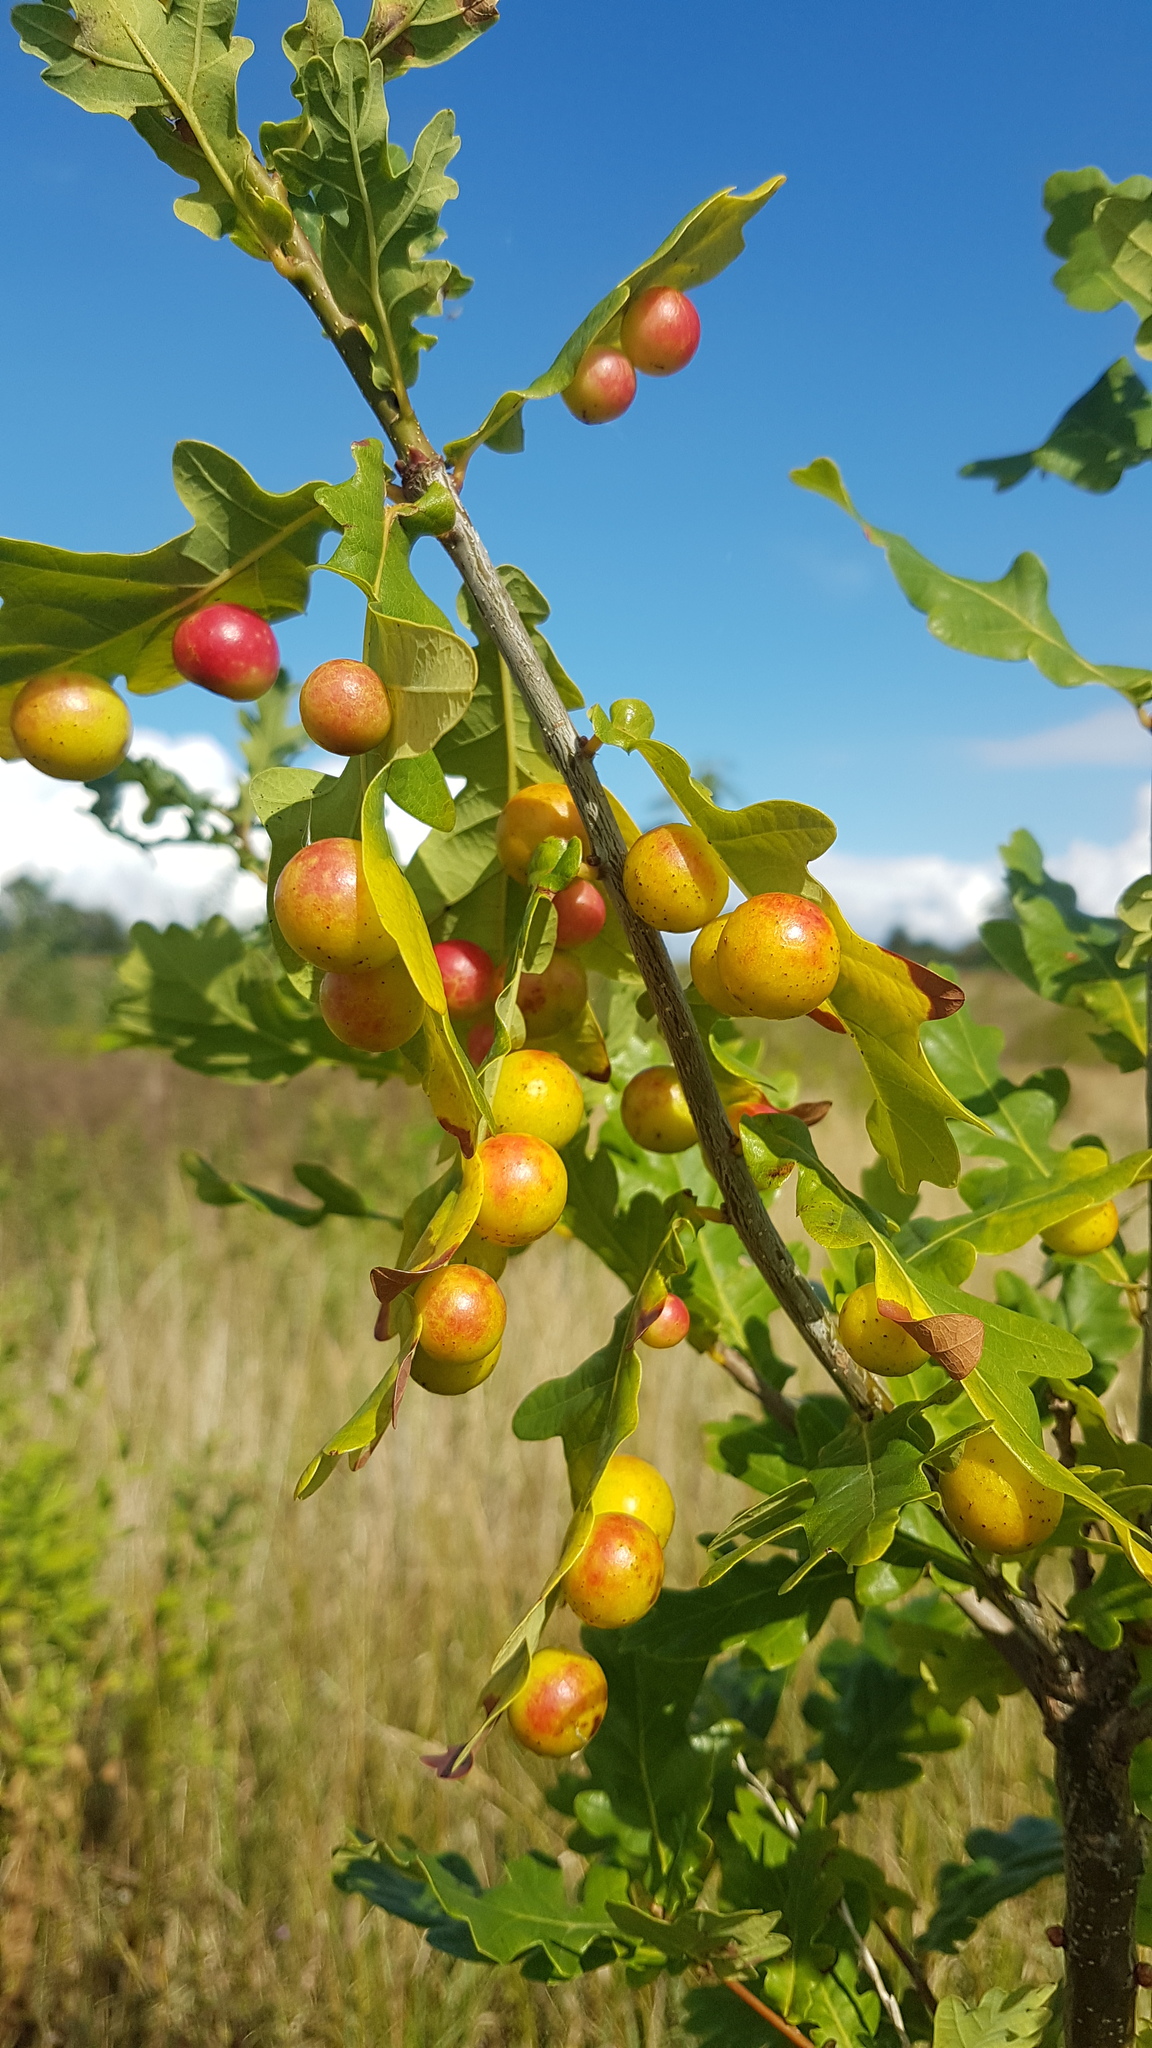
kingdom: Animalia
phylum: Arthropoda
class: Insecta
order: Hymenoptera
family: Cynipidae
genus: Cynips
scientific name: Cynips quercusfolii
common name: Cherry gall
